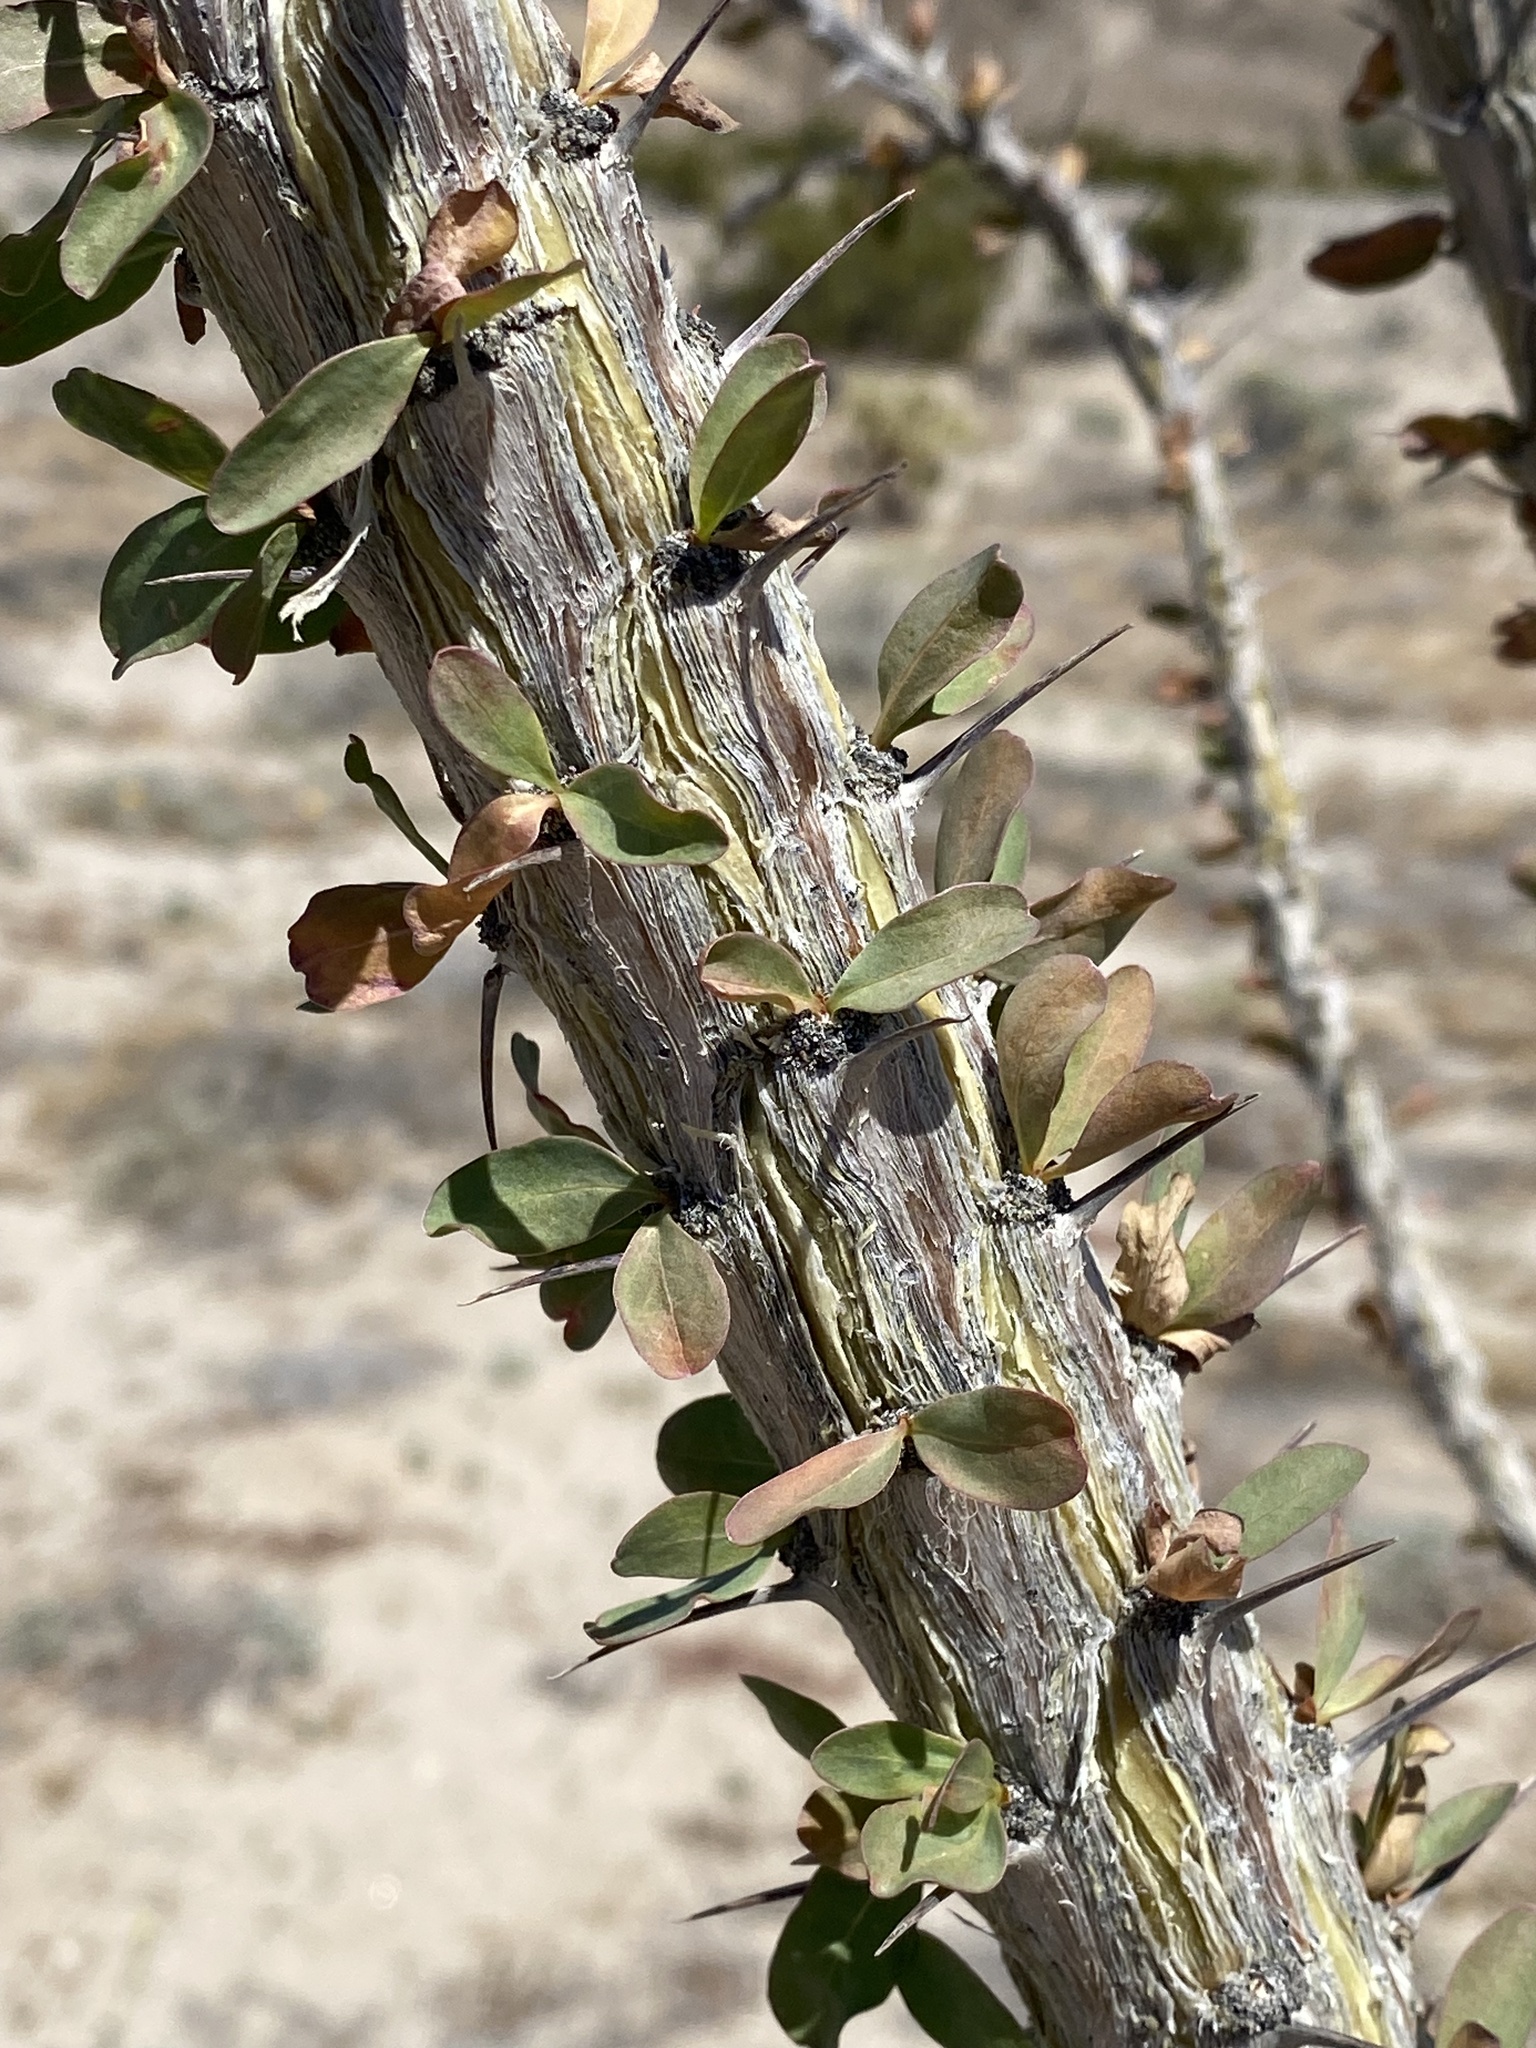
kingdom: Plantae
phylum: Tracheophyta
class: Magnoliopsida
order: Ericales
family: Fouquieriaceae
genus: Fouquieria
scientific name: Fouquieria splendens
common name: Vine-cactus
